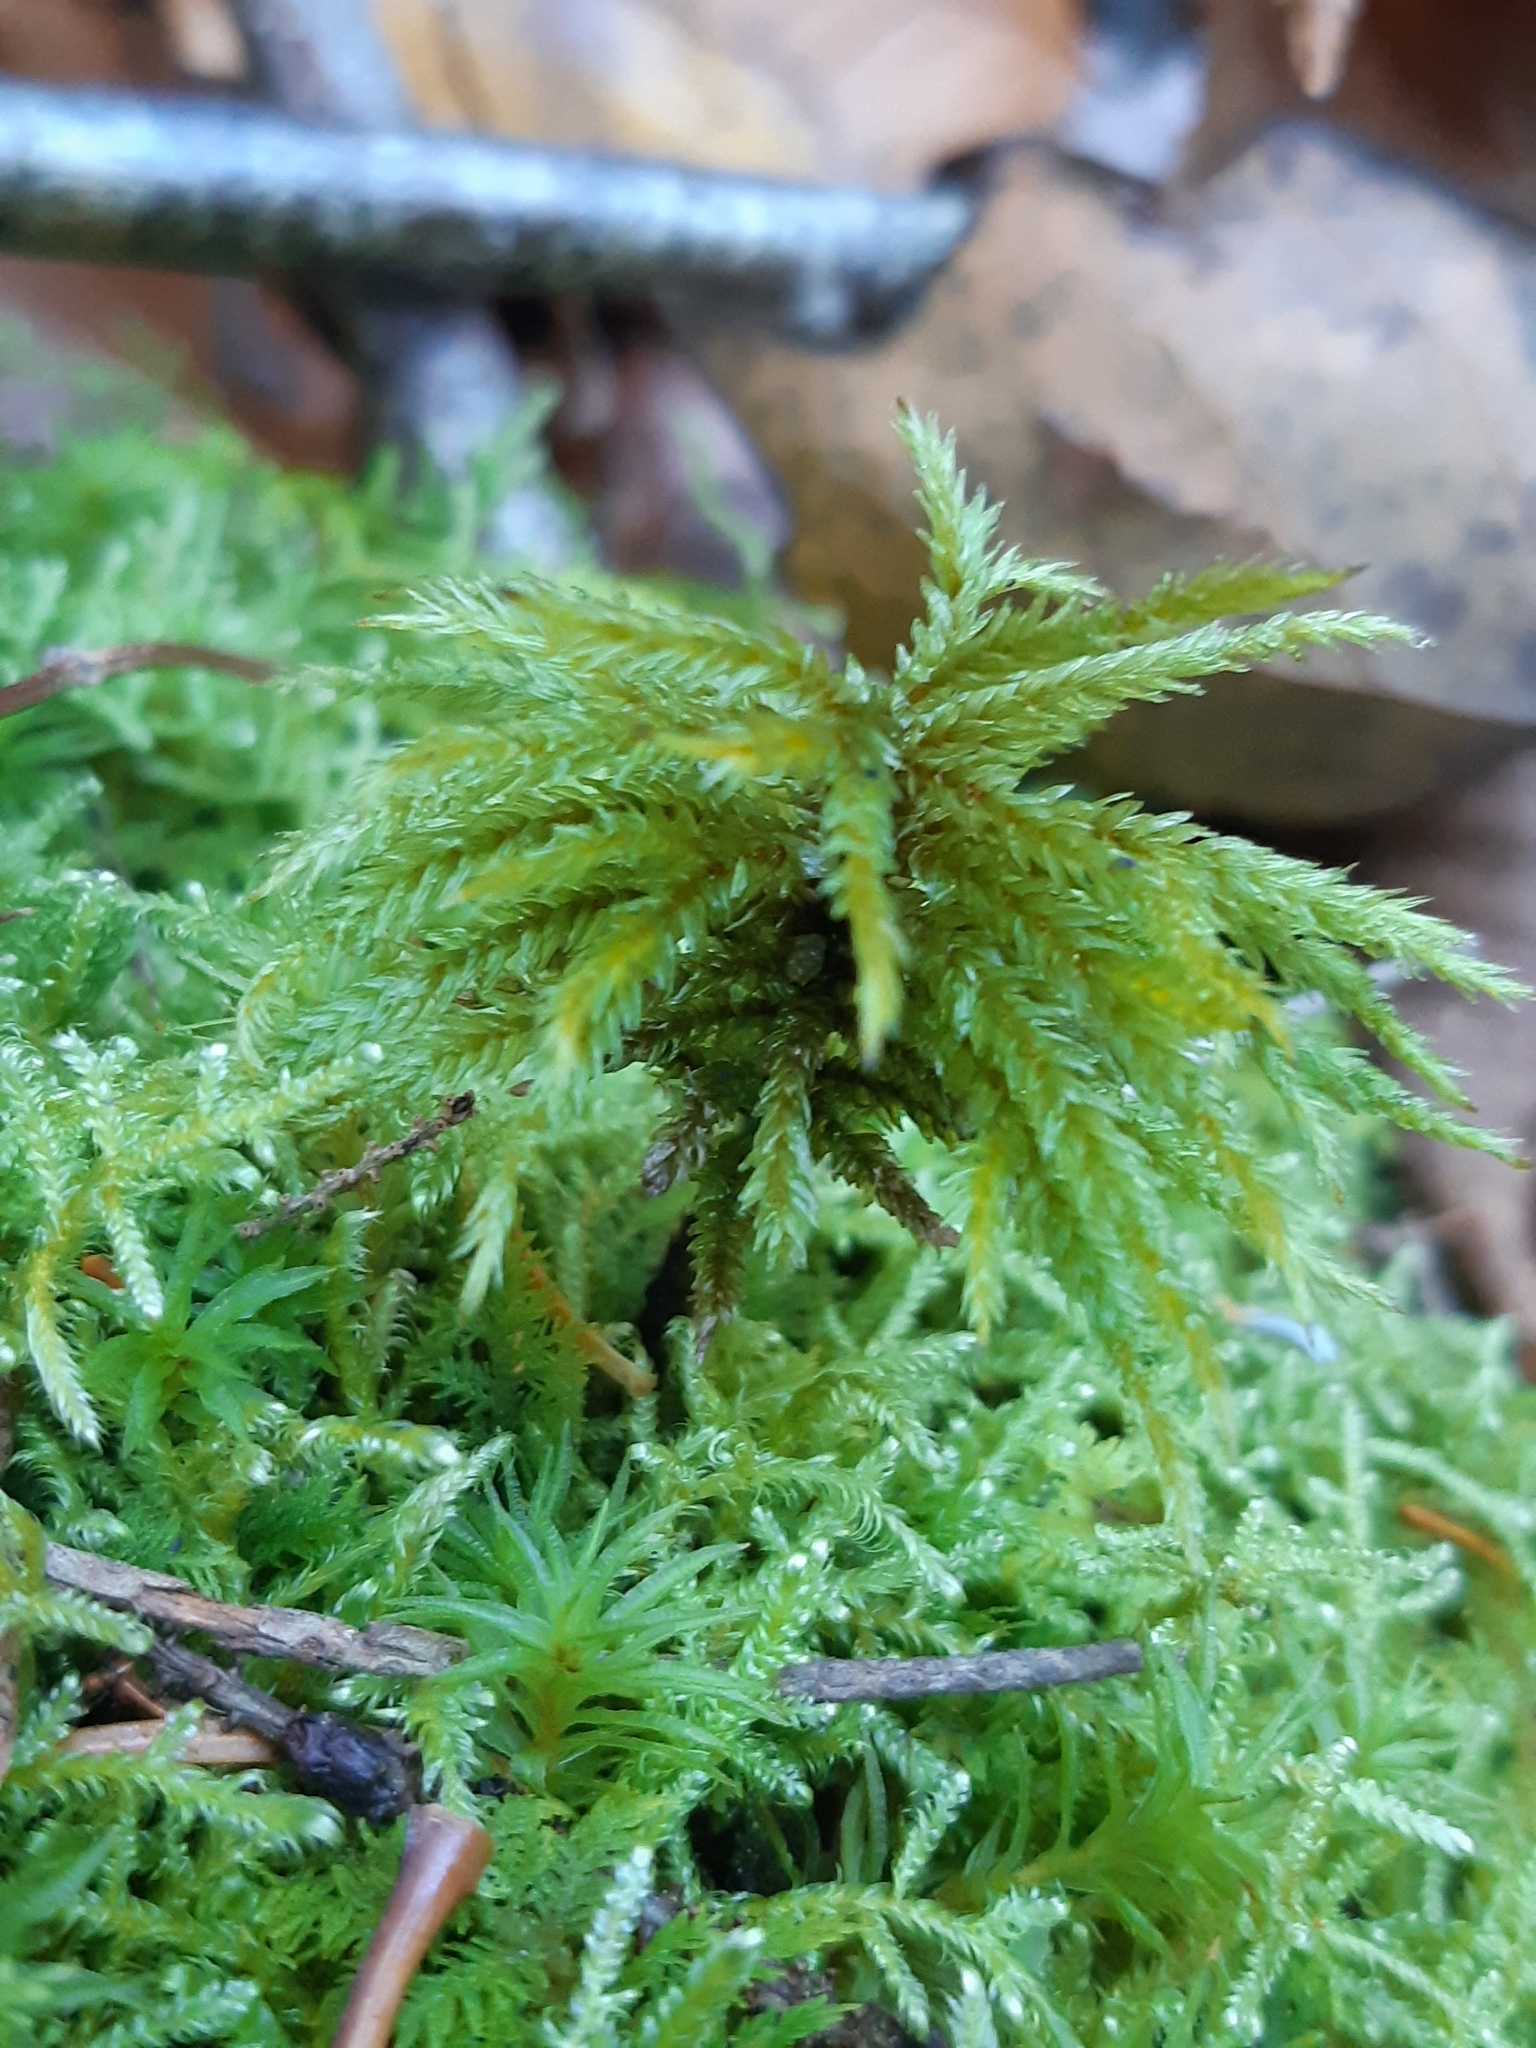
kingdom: Plantae
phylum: Bryophyta
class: Bryopsida
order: Hypnales
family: Climaciaceae
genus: Climacium
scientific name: Climacium dendroides
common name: Northern tree moss
